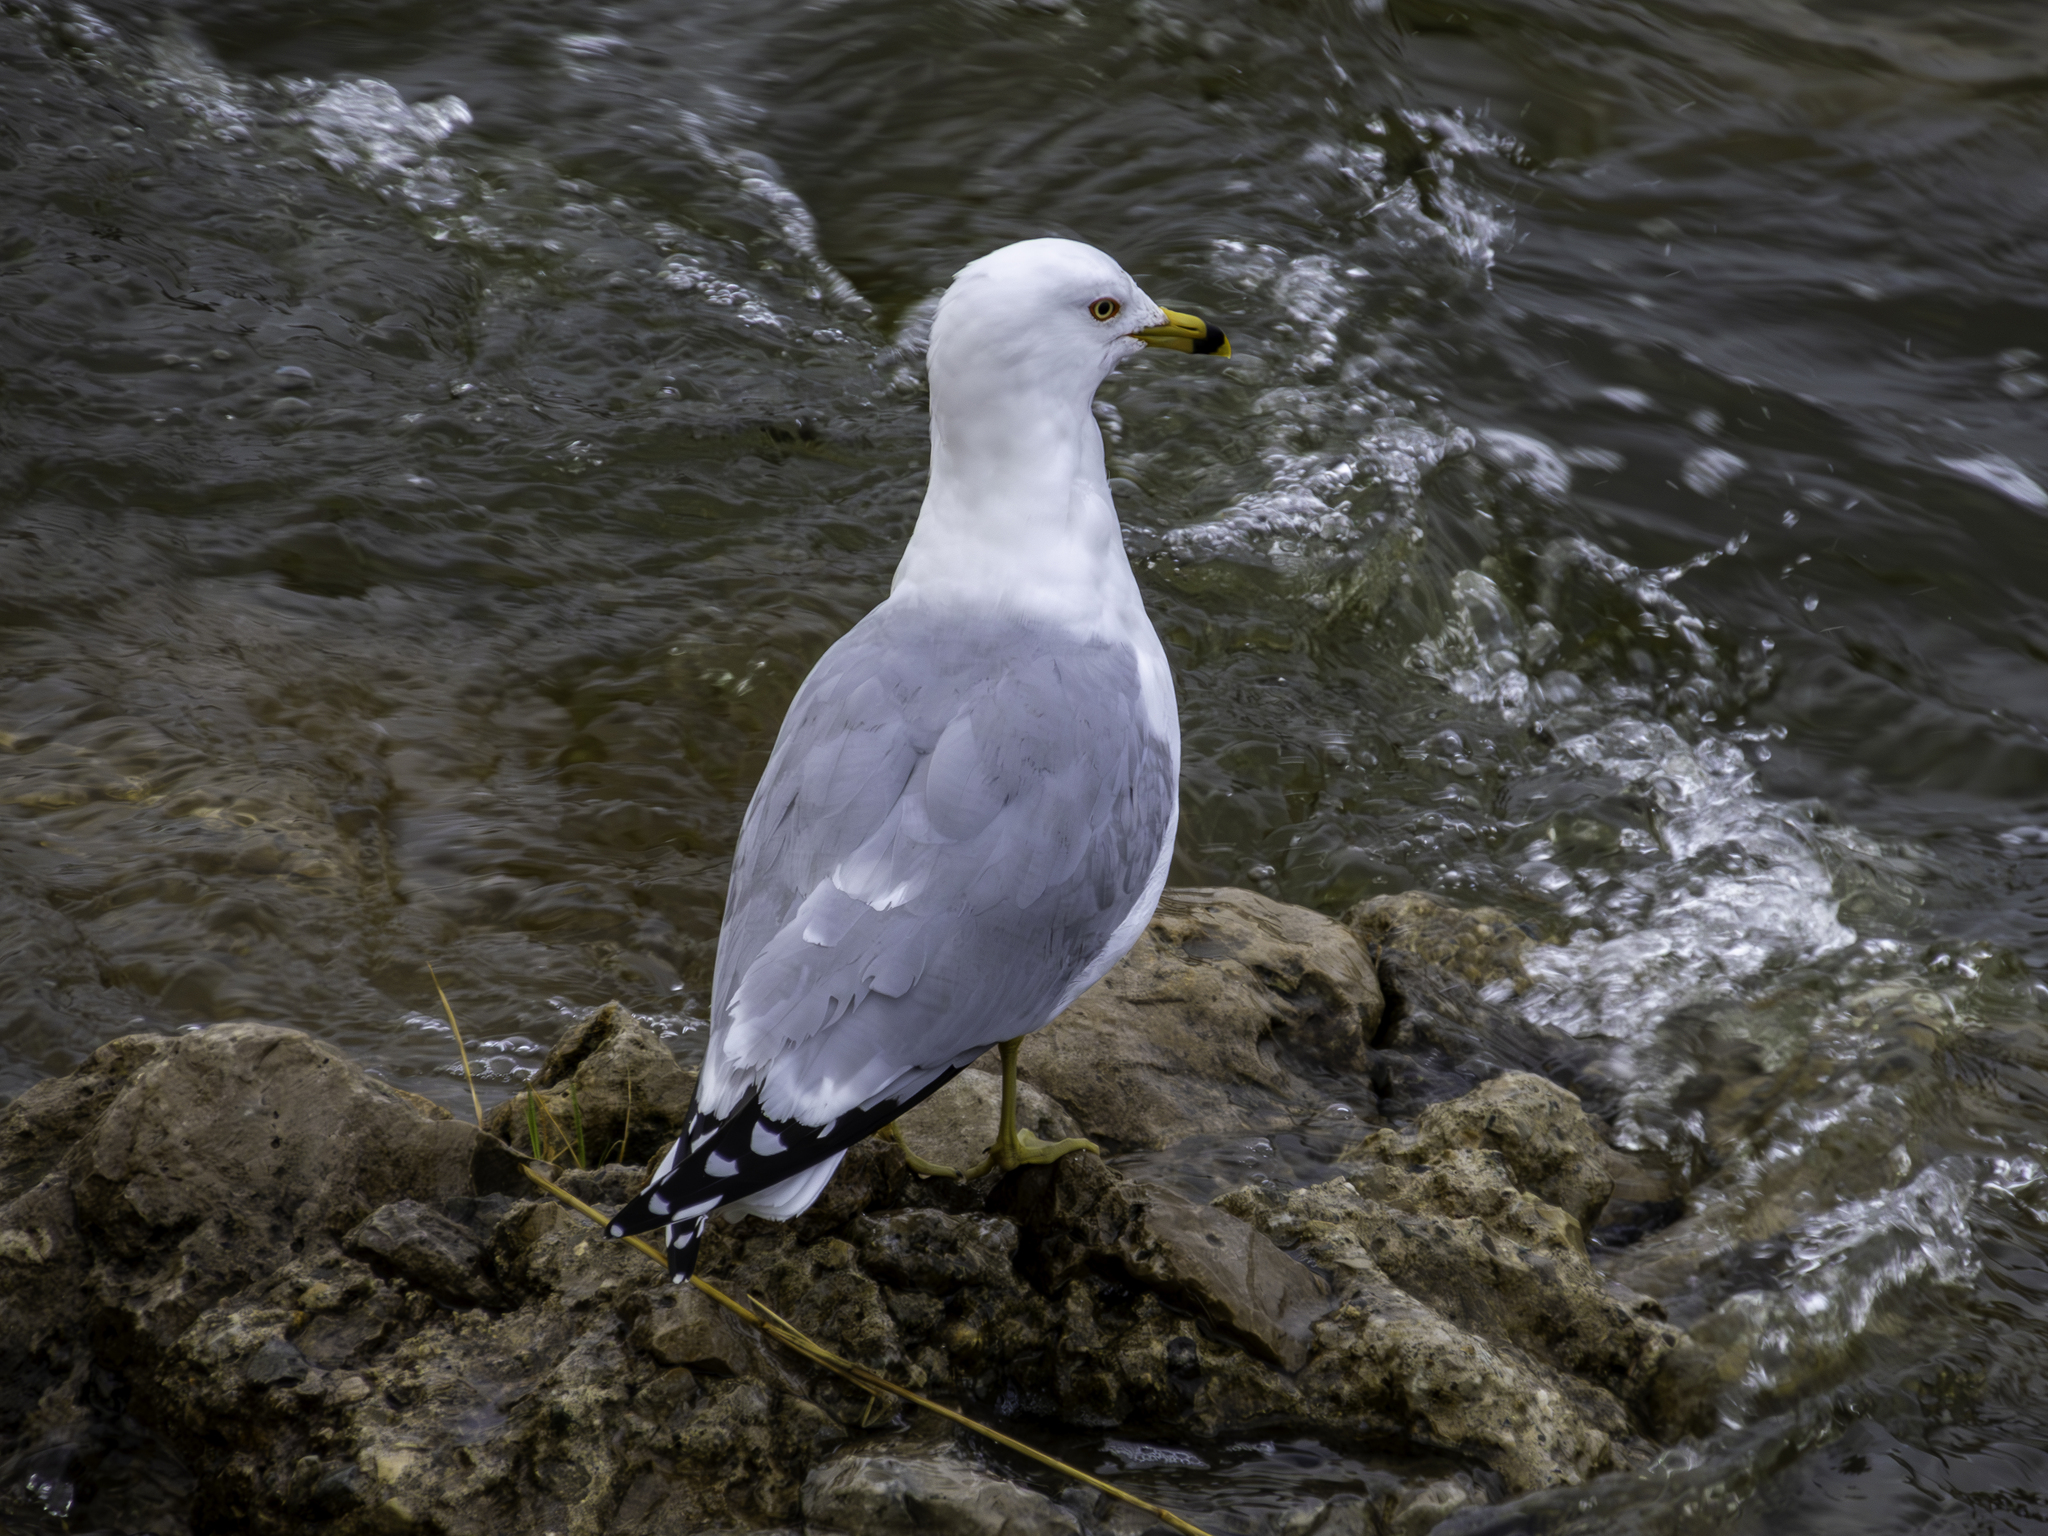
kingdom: Animalia
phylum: Chordata
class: Aves
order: Charadriiformes
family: Laridae
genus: Larus
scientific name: Larus delawarensis
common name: Ring-billed gull
